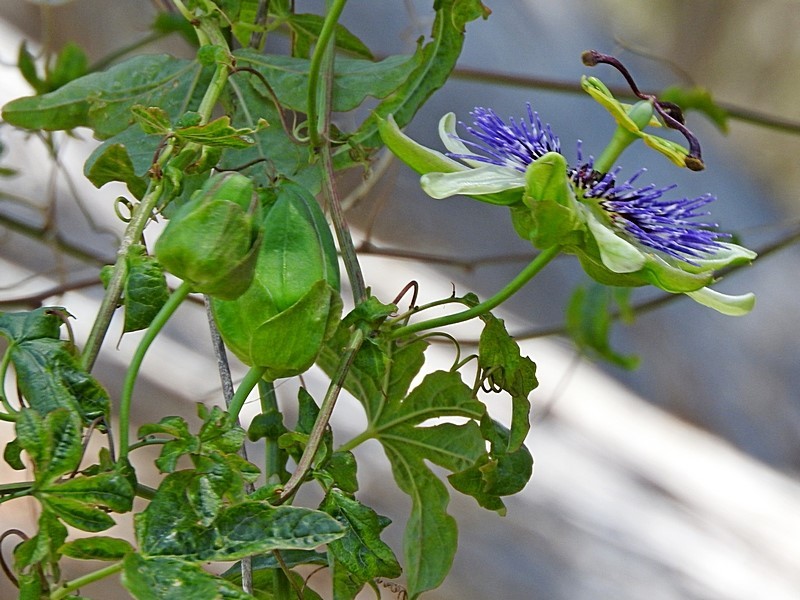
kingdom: Plantae
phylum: Tracheophyta
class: Magnoliopsida
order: Malpighiales
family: Passifloraceae
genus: Passiflora
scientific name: Passiflora caerulea
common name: Blue passionflower
